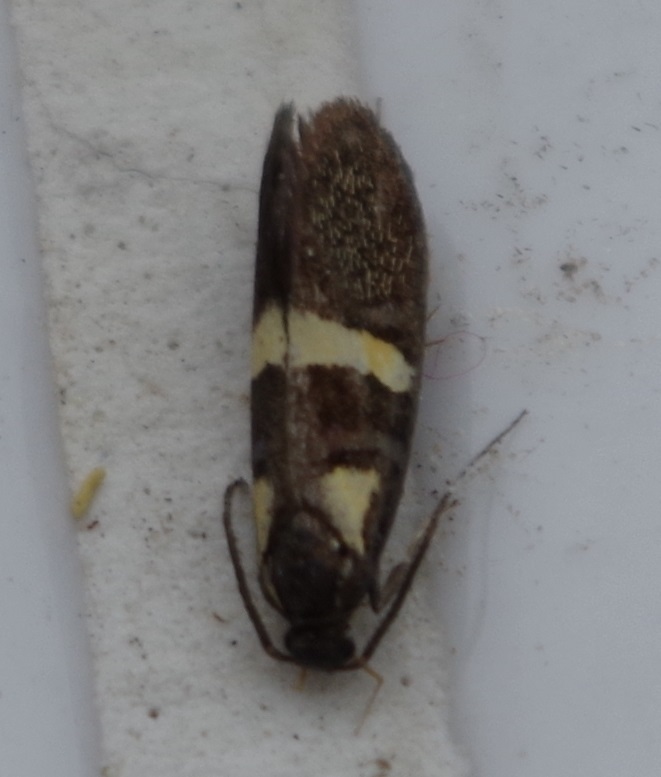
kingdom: Animalia
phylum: Arthropoda
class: Insecta
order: Lepidoptera
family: Oecophoridae
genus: Dafa
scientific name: Dafa oliviella
